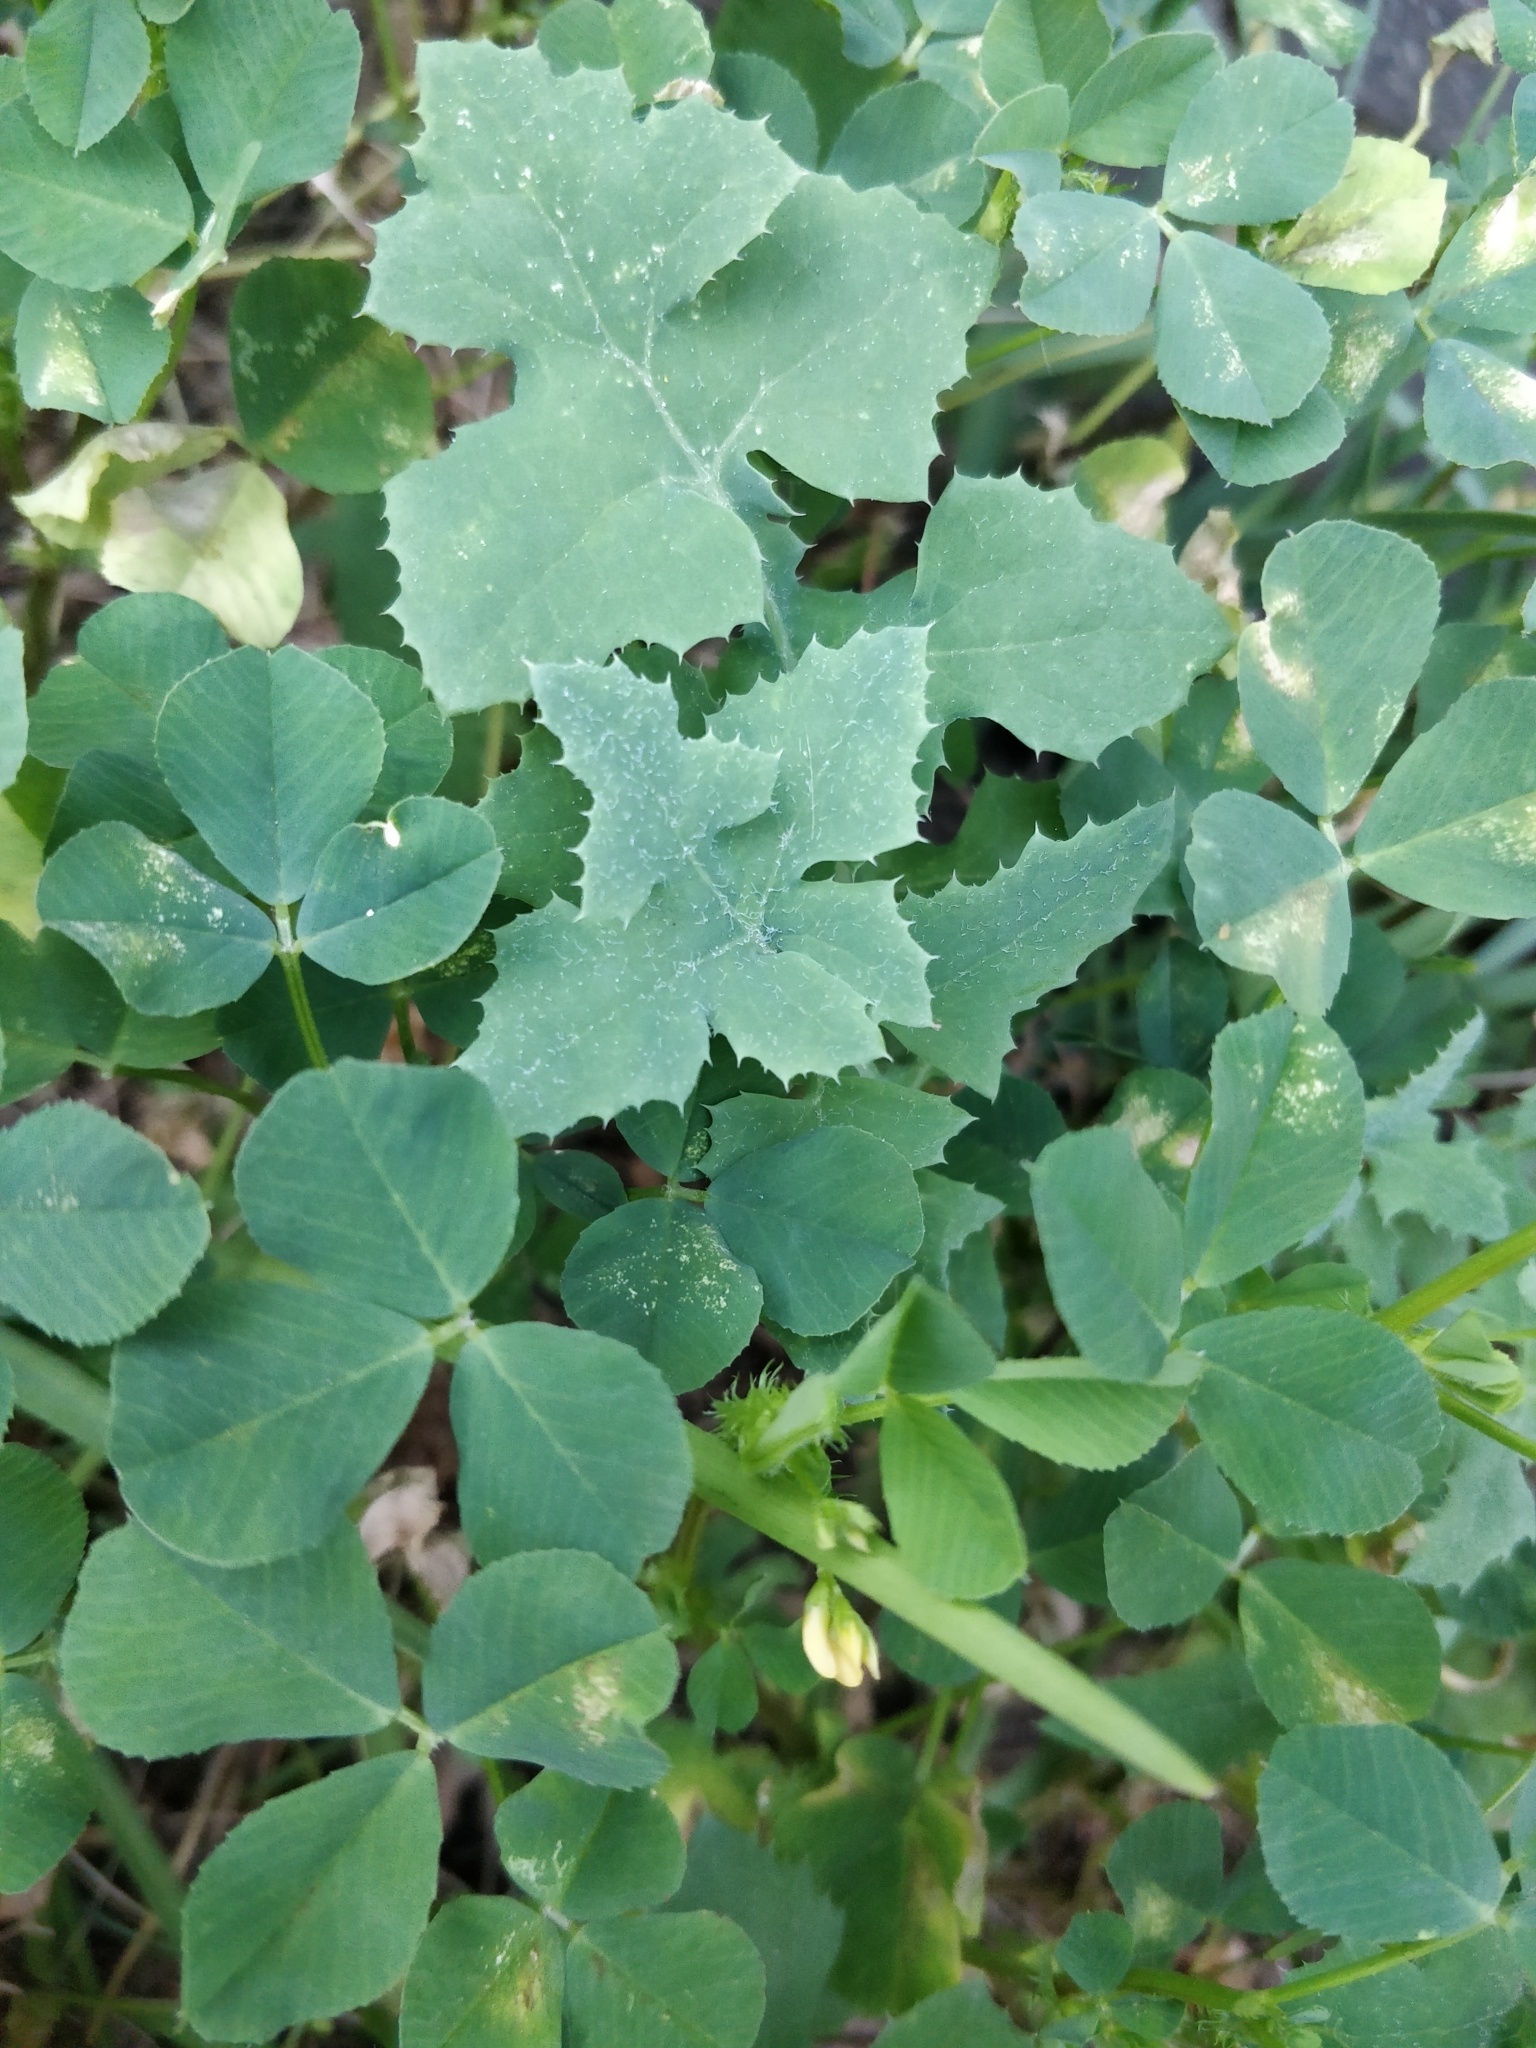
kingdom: Plantae
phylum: Tracheophyta
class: Magnoliopsida
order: Fabales
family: Fabaceae
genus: Medicago
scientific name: Medicago polymorpha
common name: Burclover
